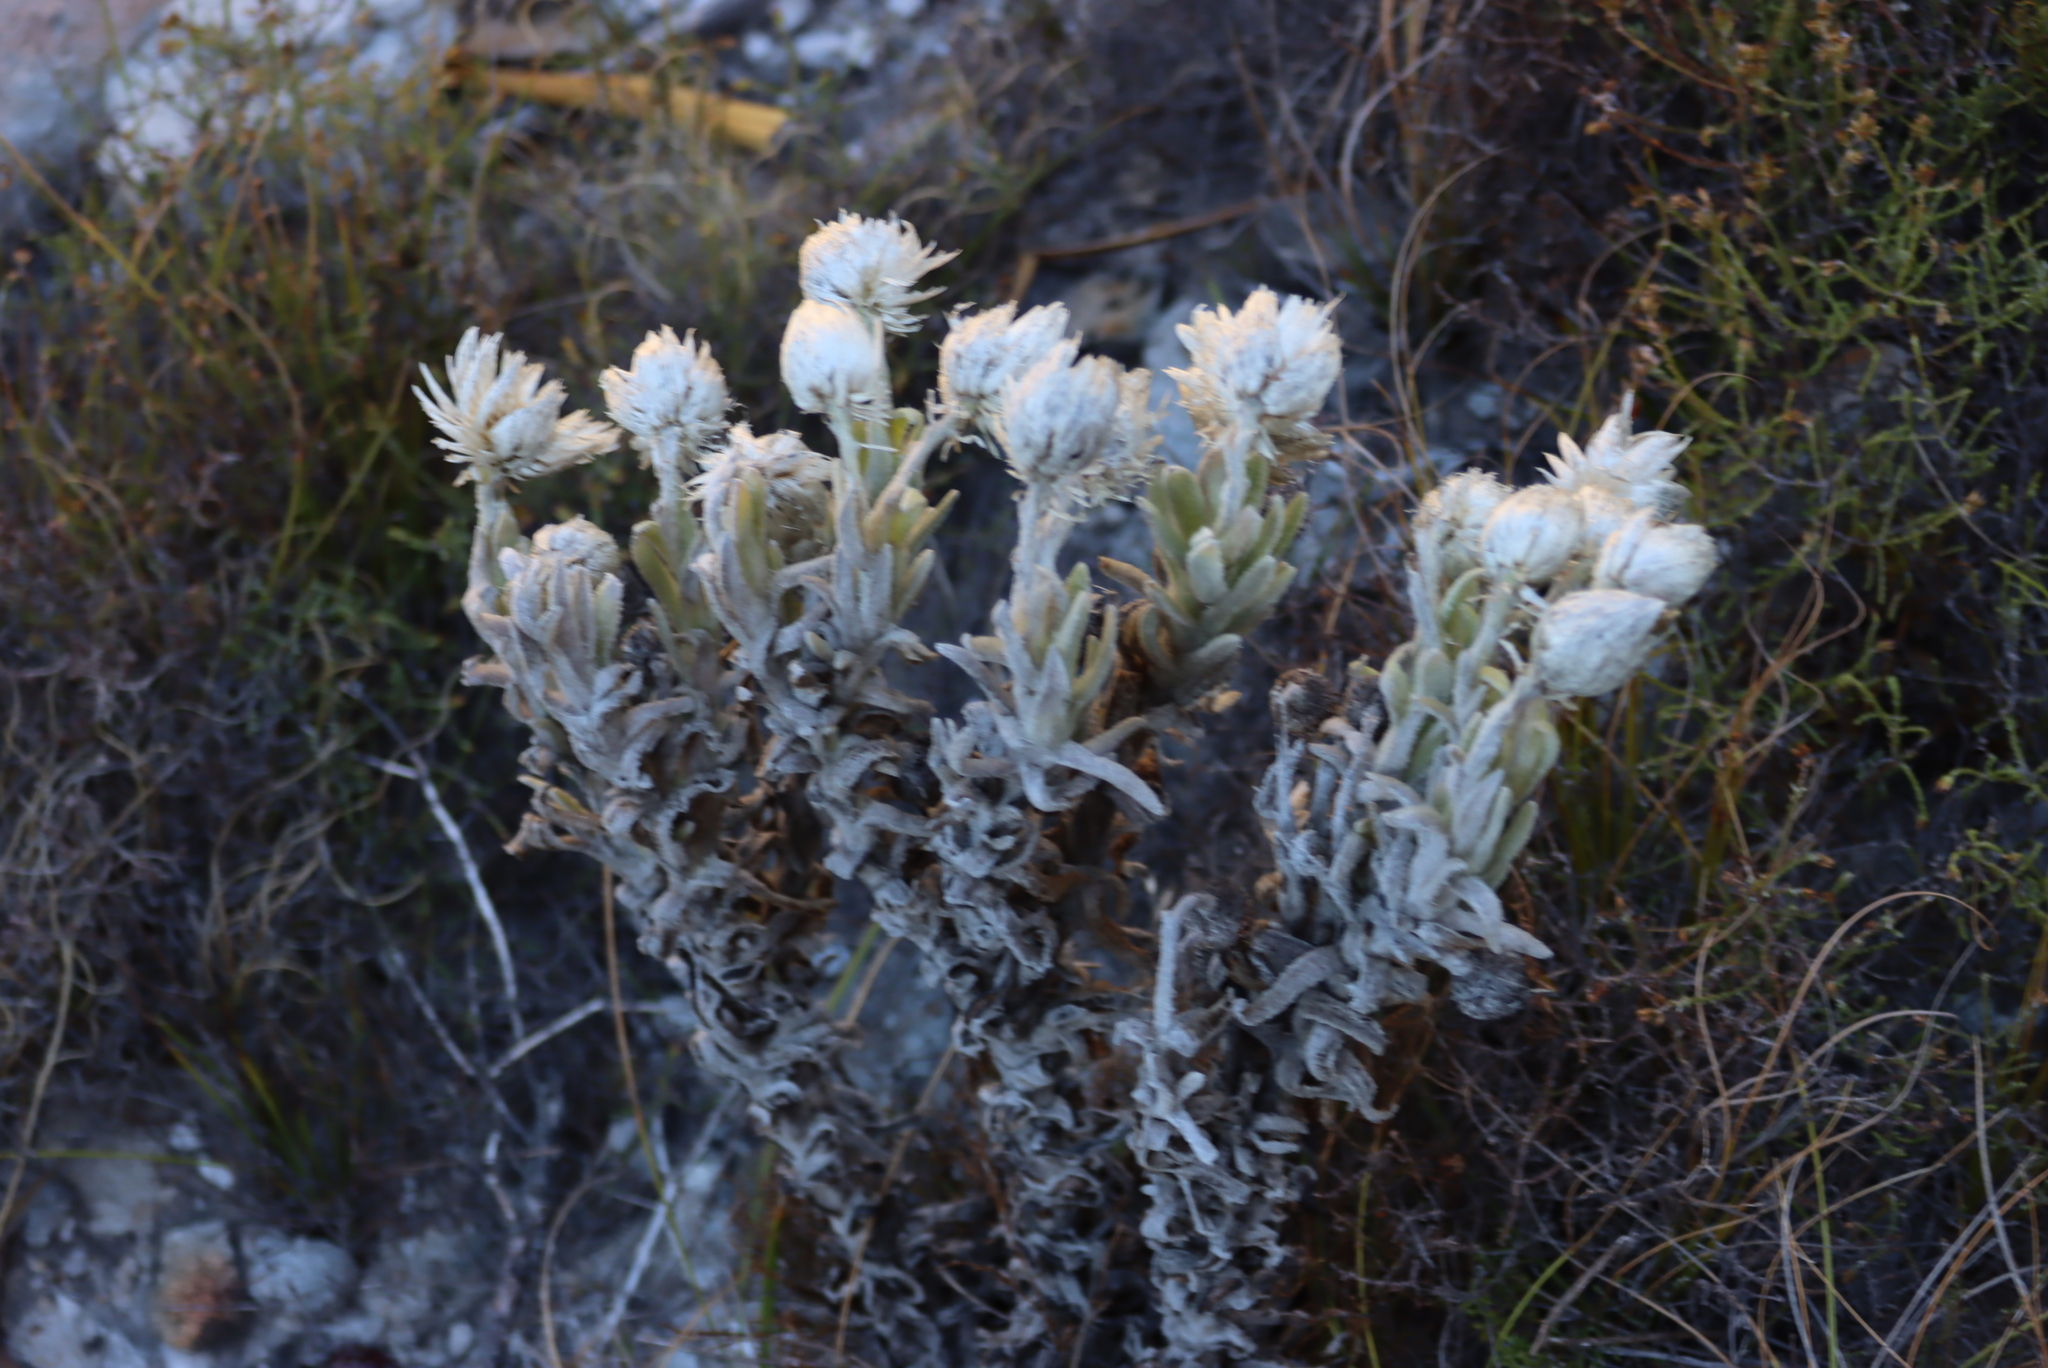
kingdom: Plantae
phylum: Tracheophyta
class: Magnoliopsida
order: Asterales
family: Asteraceae
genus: Syncarpha
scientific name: Syncarpha vestita
